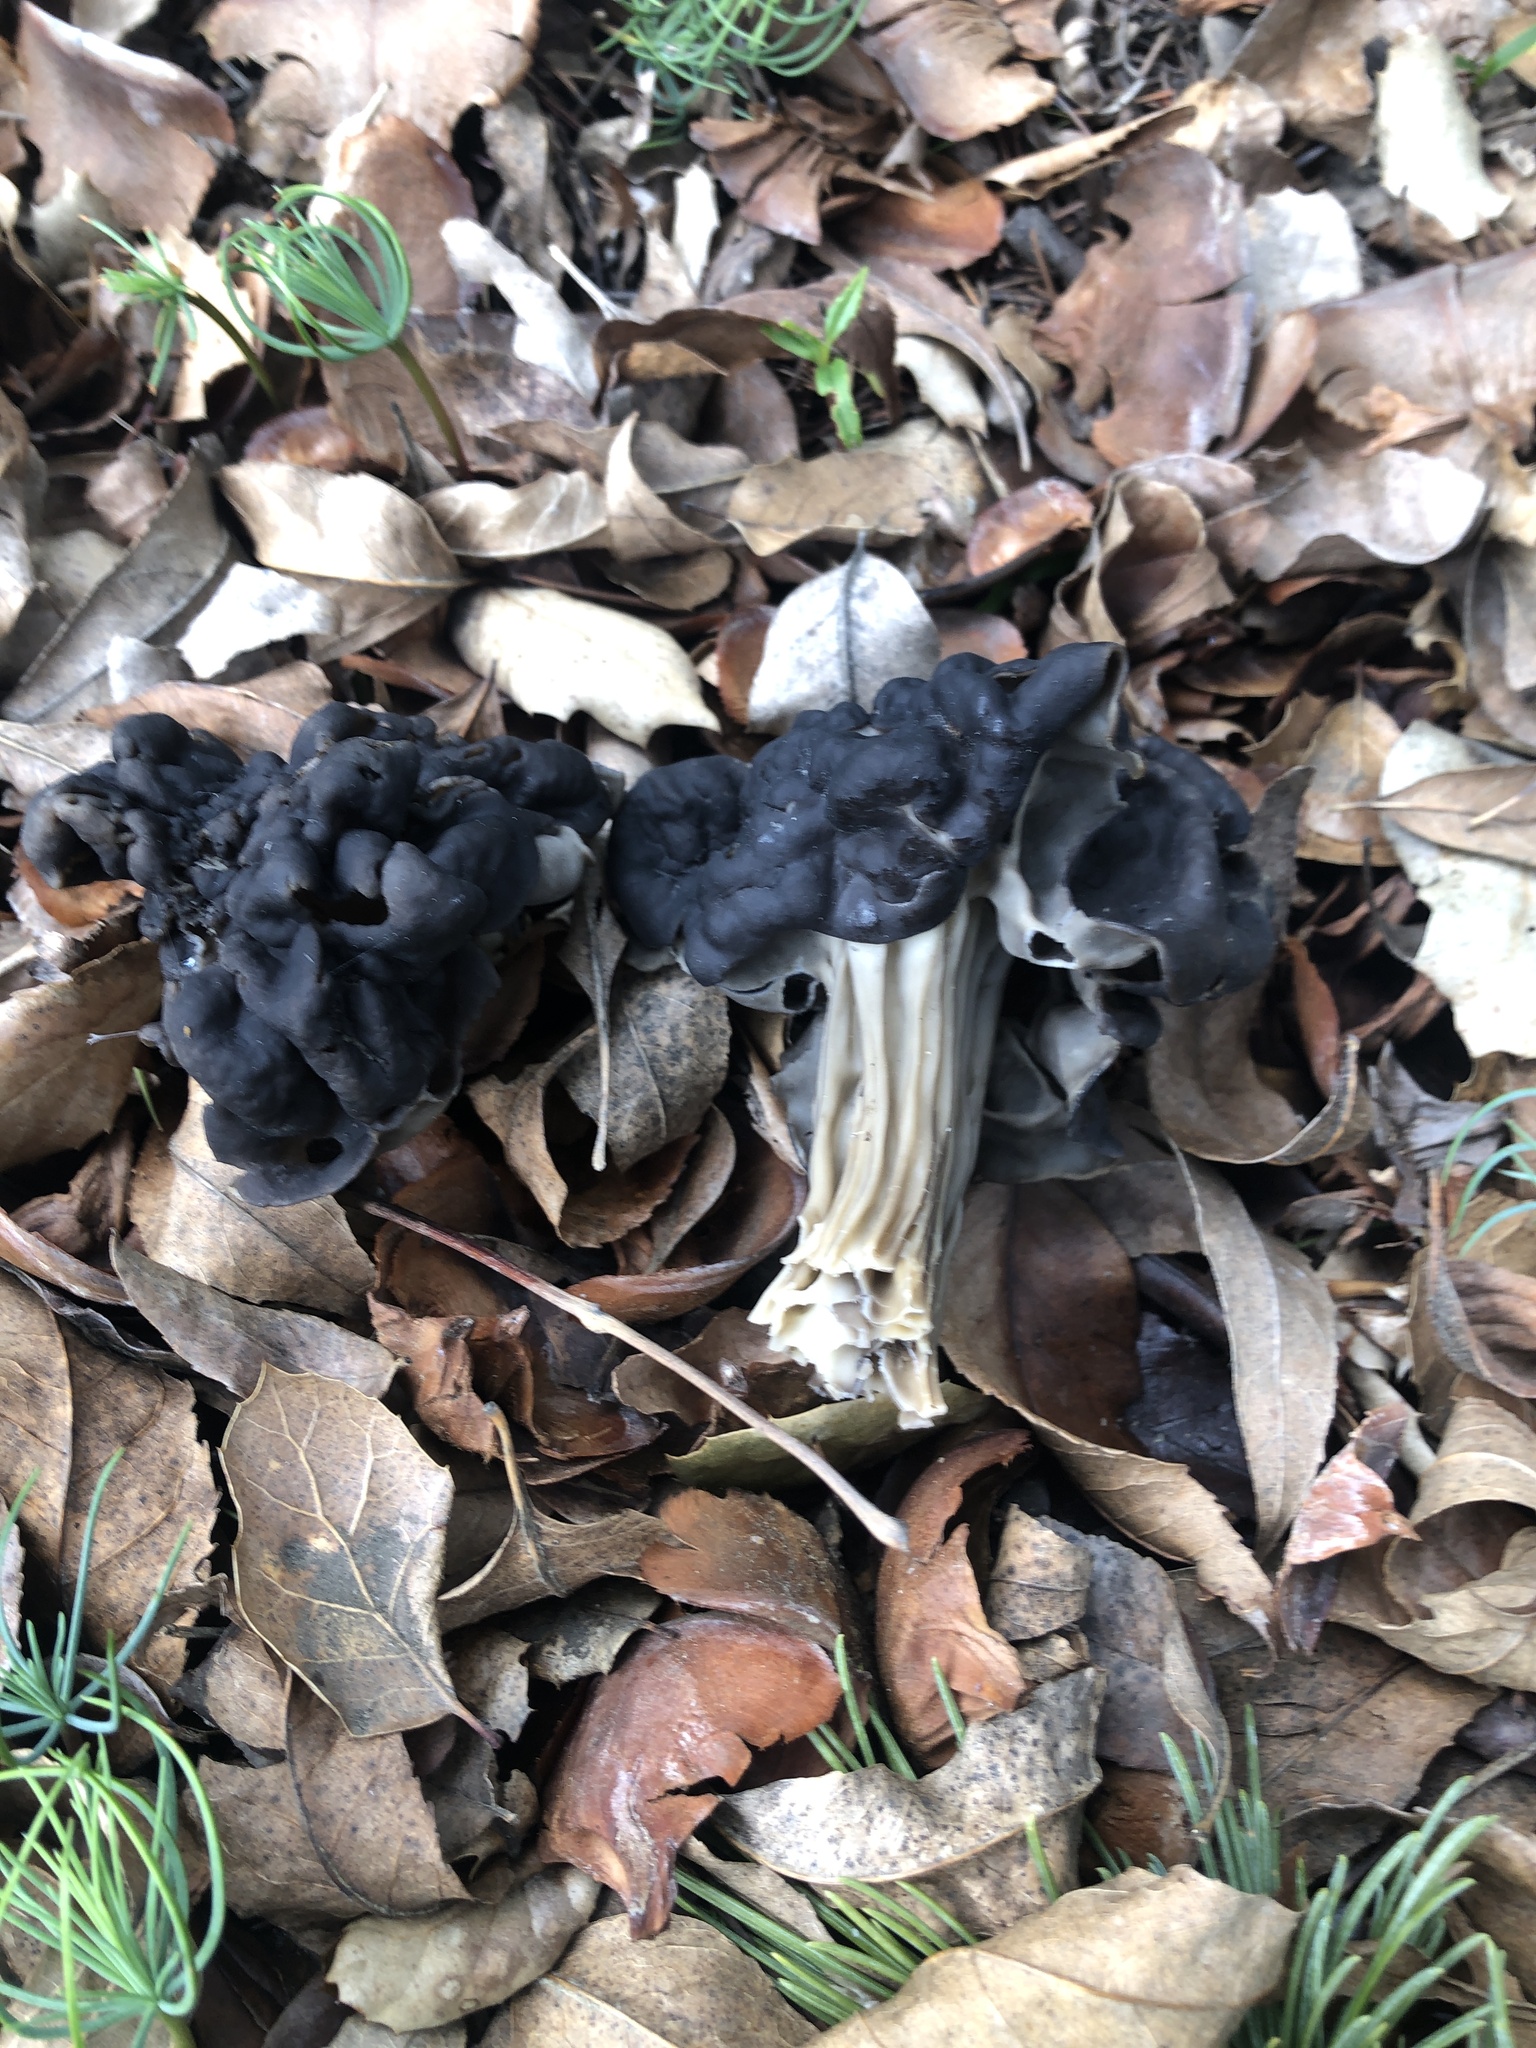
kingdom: Fungi
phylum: Ascomycota
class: Pezizomycetes
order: Pezizales
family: Helvellaceae
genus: Helvella
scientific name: Helvella dryophila
